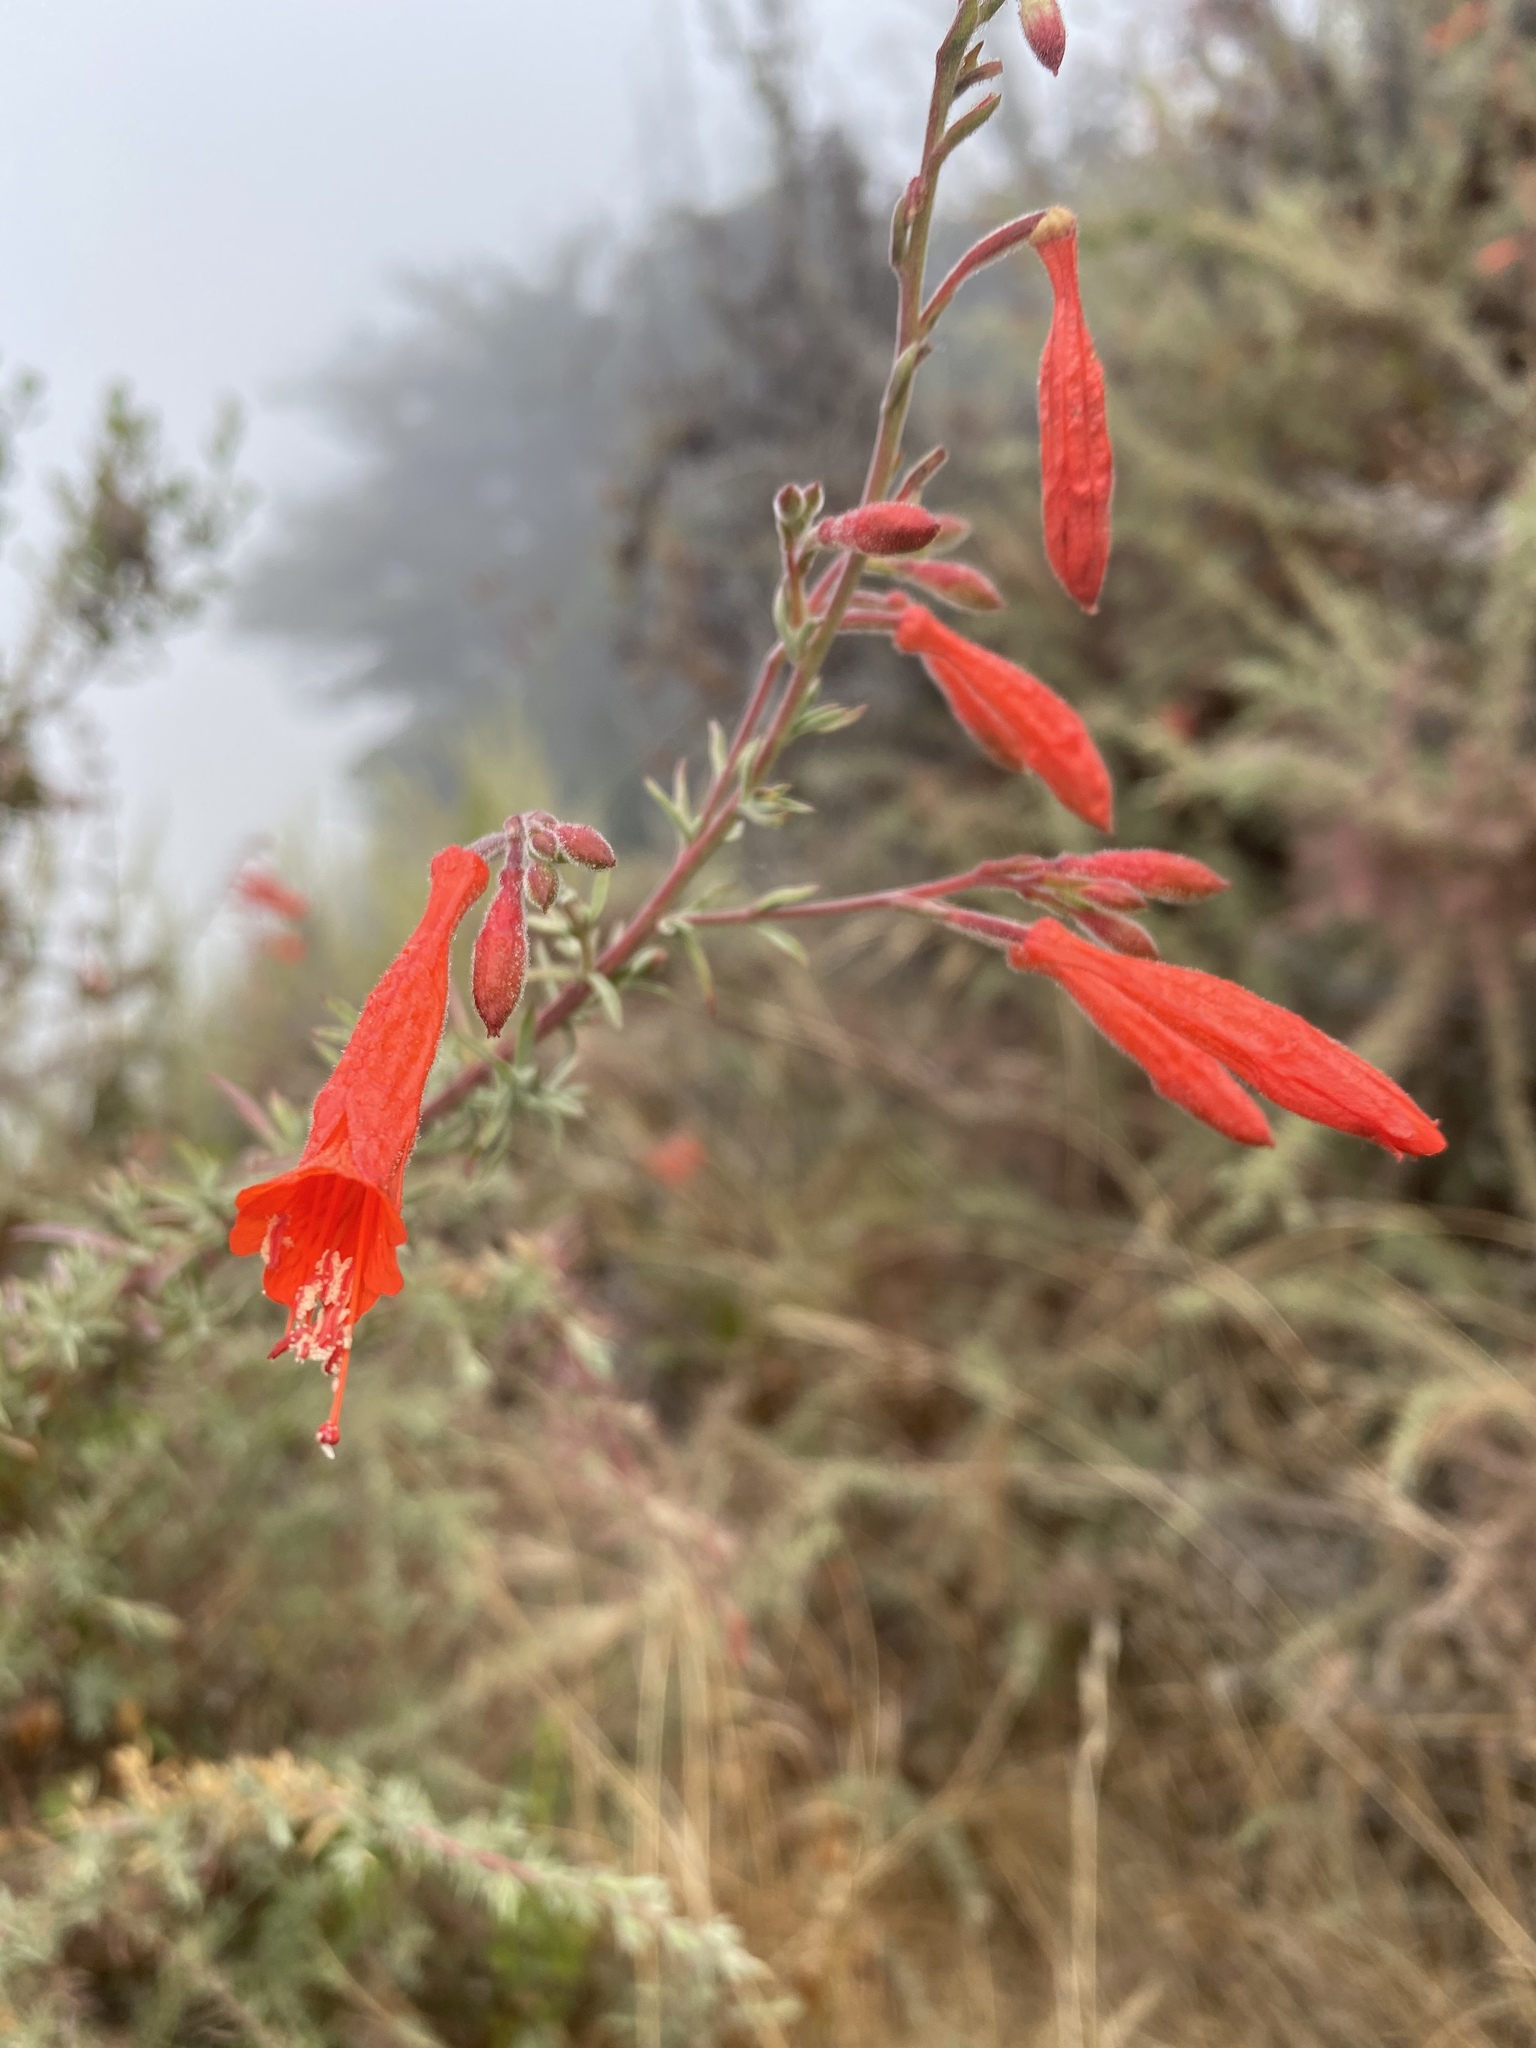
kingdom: Plantae
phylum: Tracheophyta
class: Magnoliopsida
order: Myrtales
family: Onagraceae
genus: Epilobium
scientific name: Epilobium canum
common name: California-fuchsia
